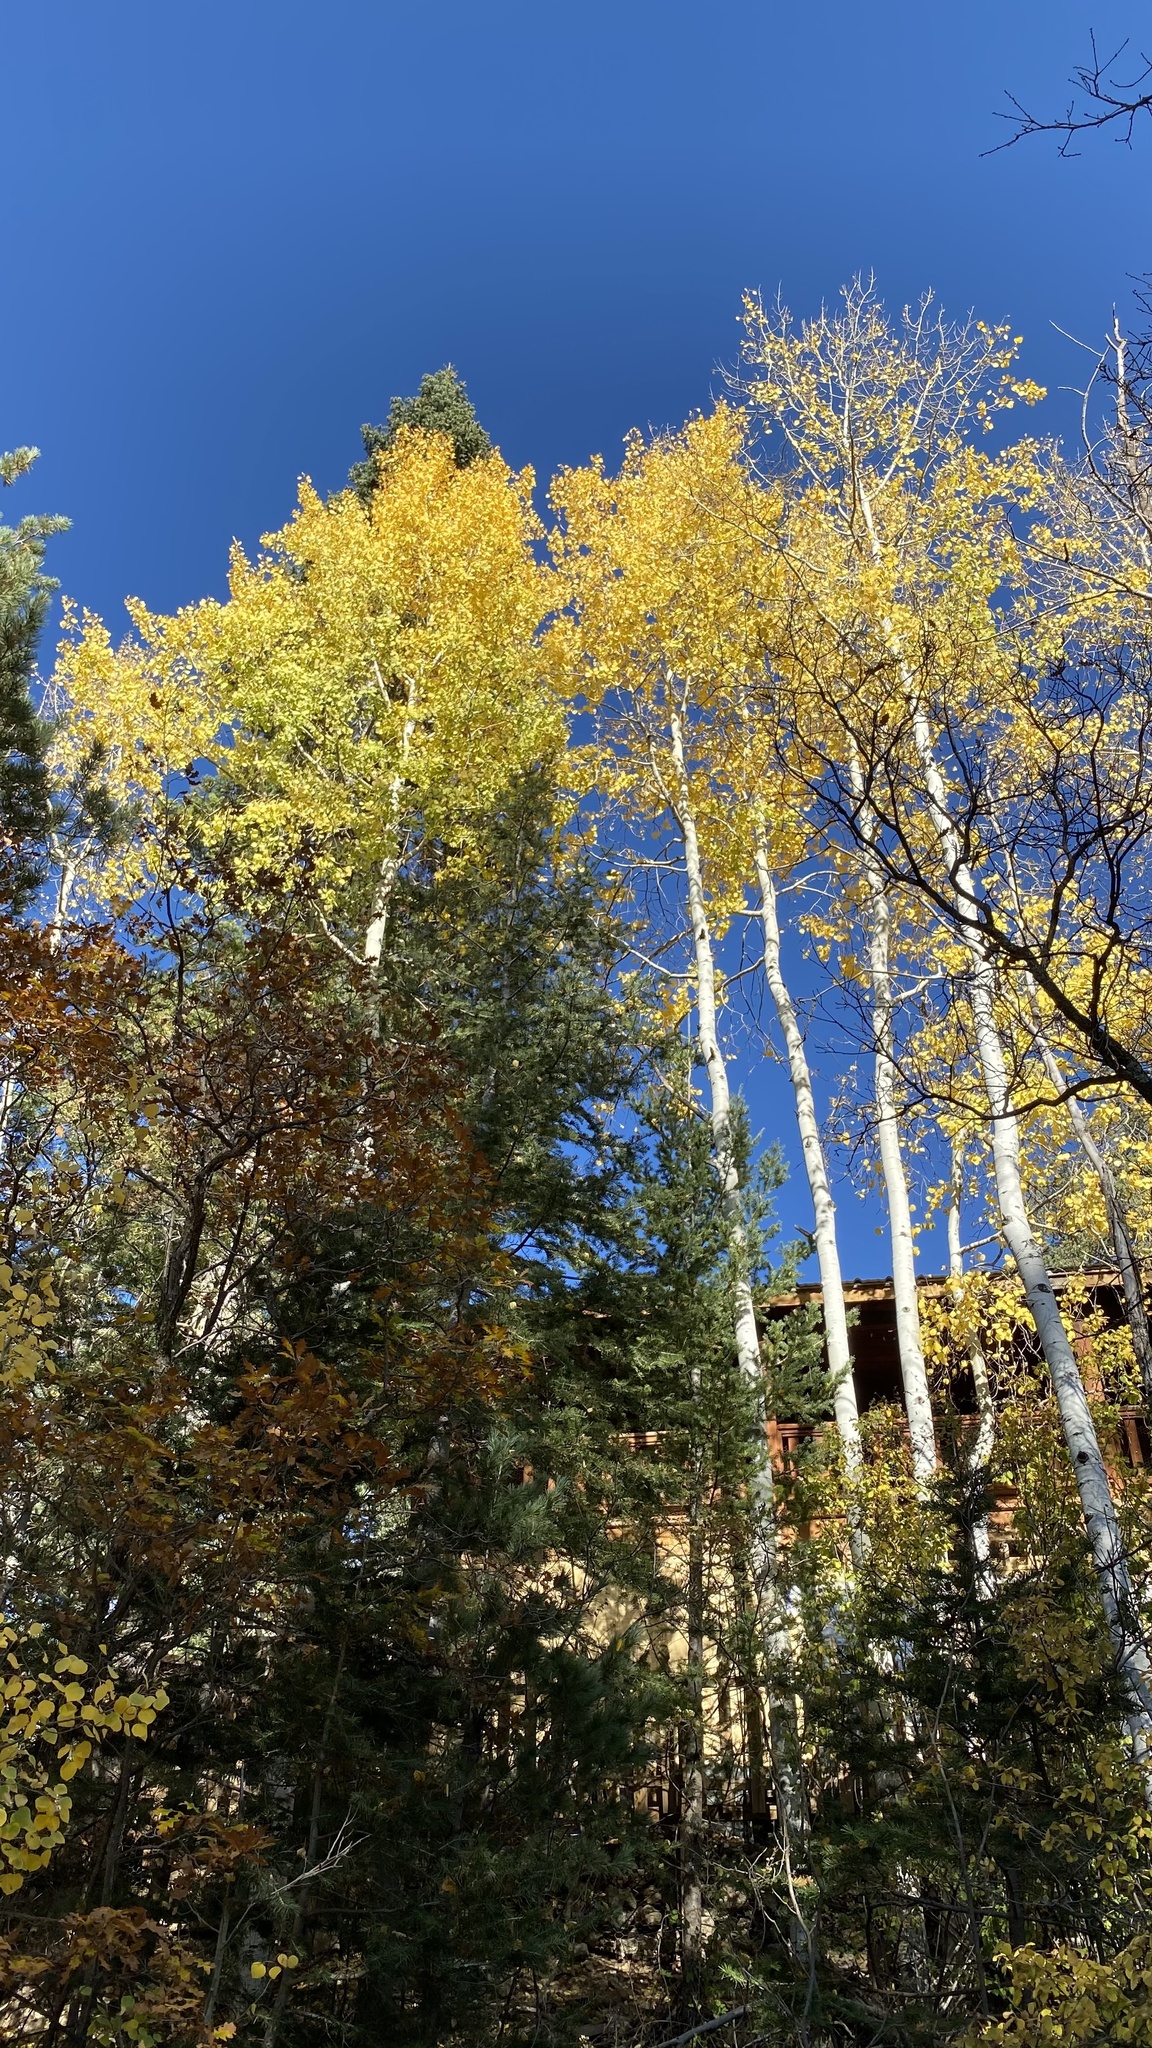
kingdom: Plantae
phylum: Tracheophyta
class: Magnoliopsida
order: Malpighiales
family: Salicaceae
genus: Populus
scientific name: Populus tremuloides
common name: Quaking aspen
